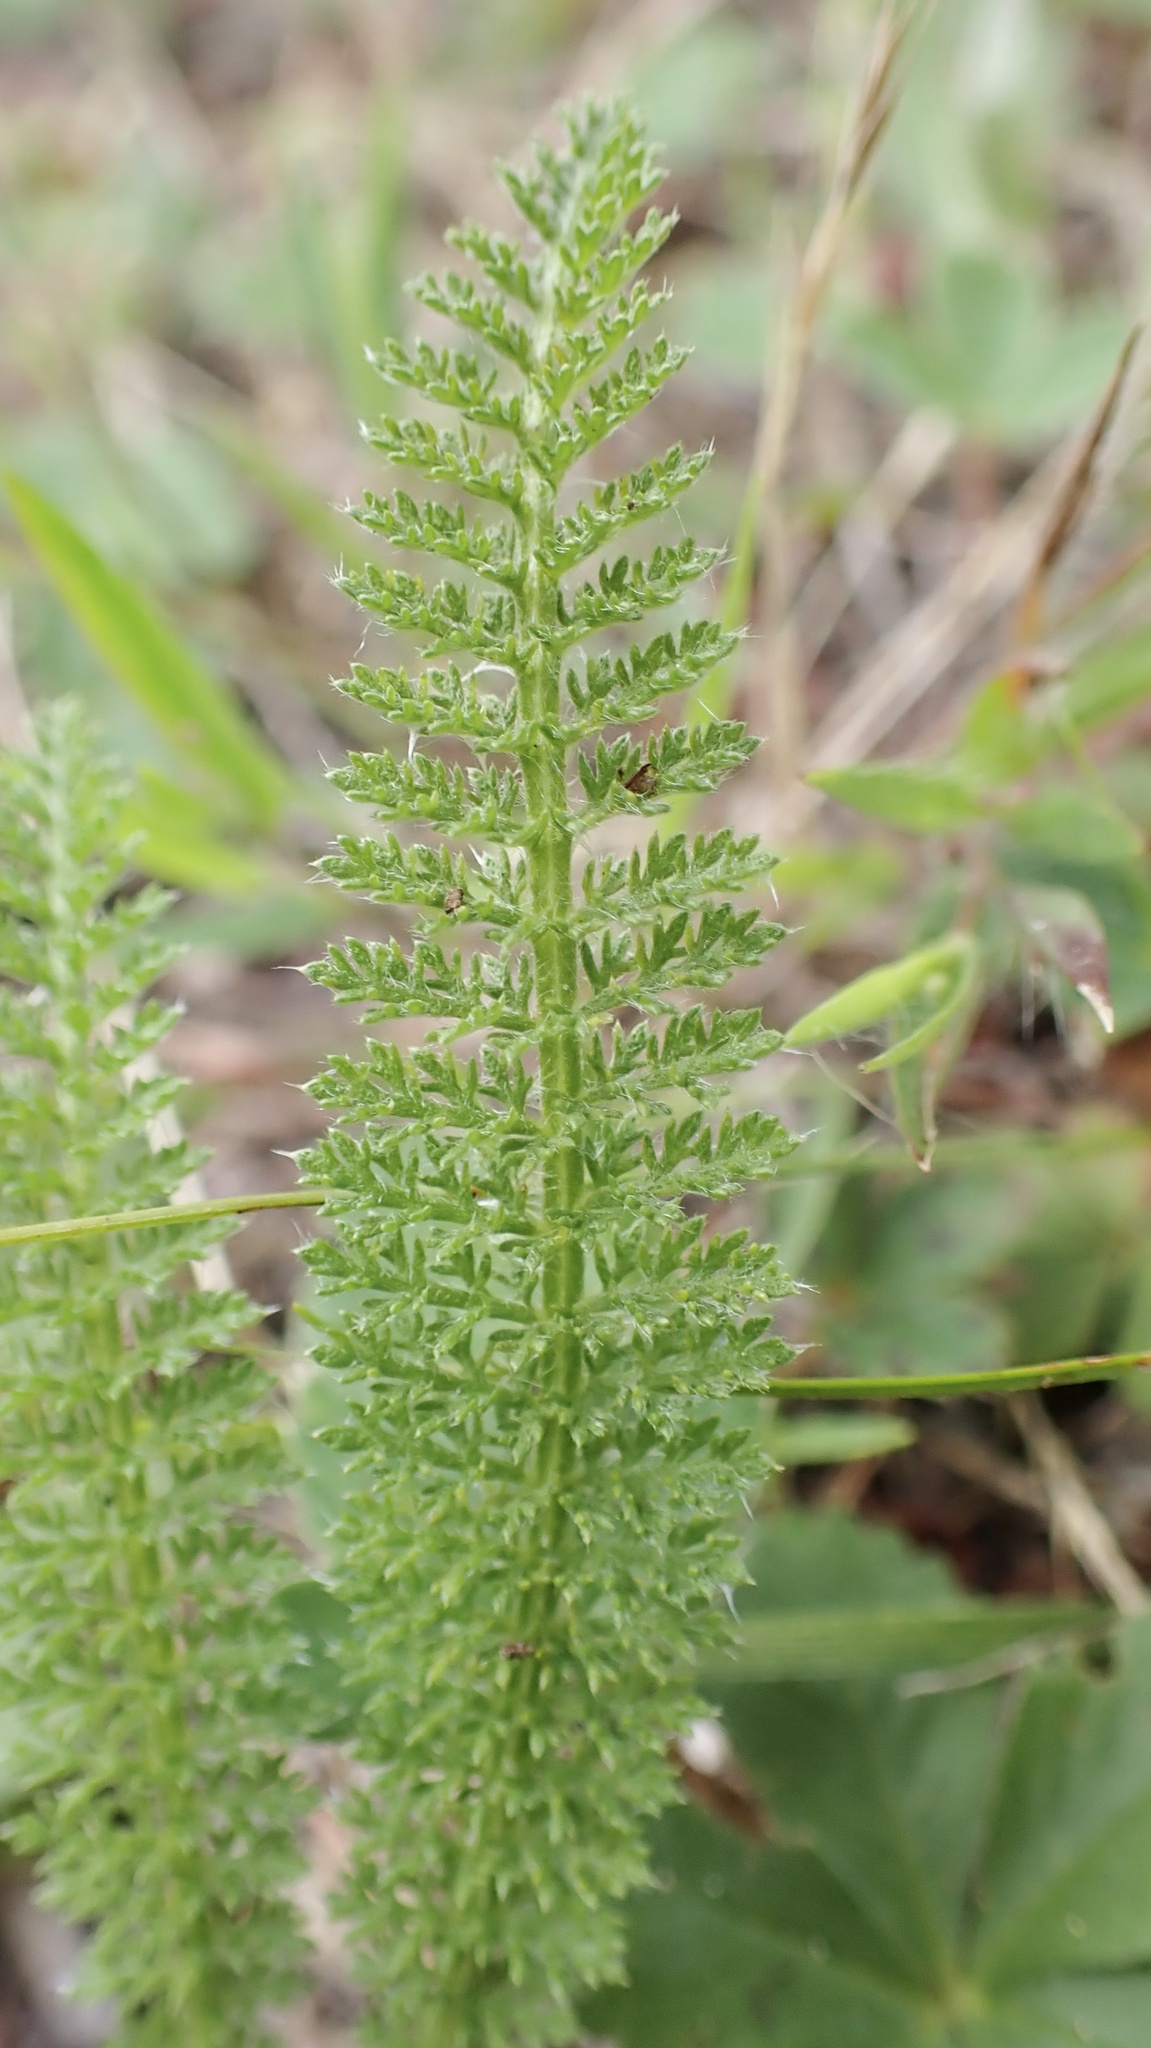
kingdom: Plantae
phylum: Tracheophyta
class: Magnoliopsida
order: Asterales
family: Asteraceae
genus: Achillea
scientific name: Achillea millefolium
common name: Yarrow
